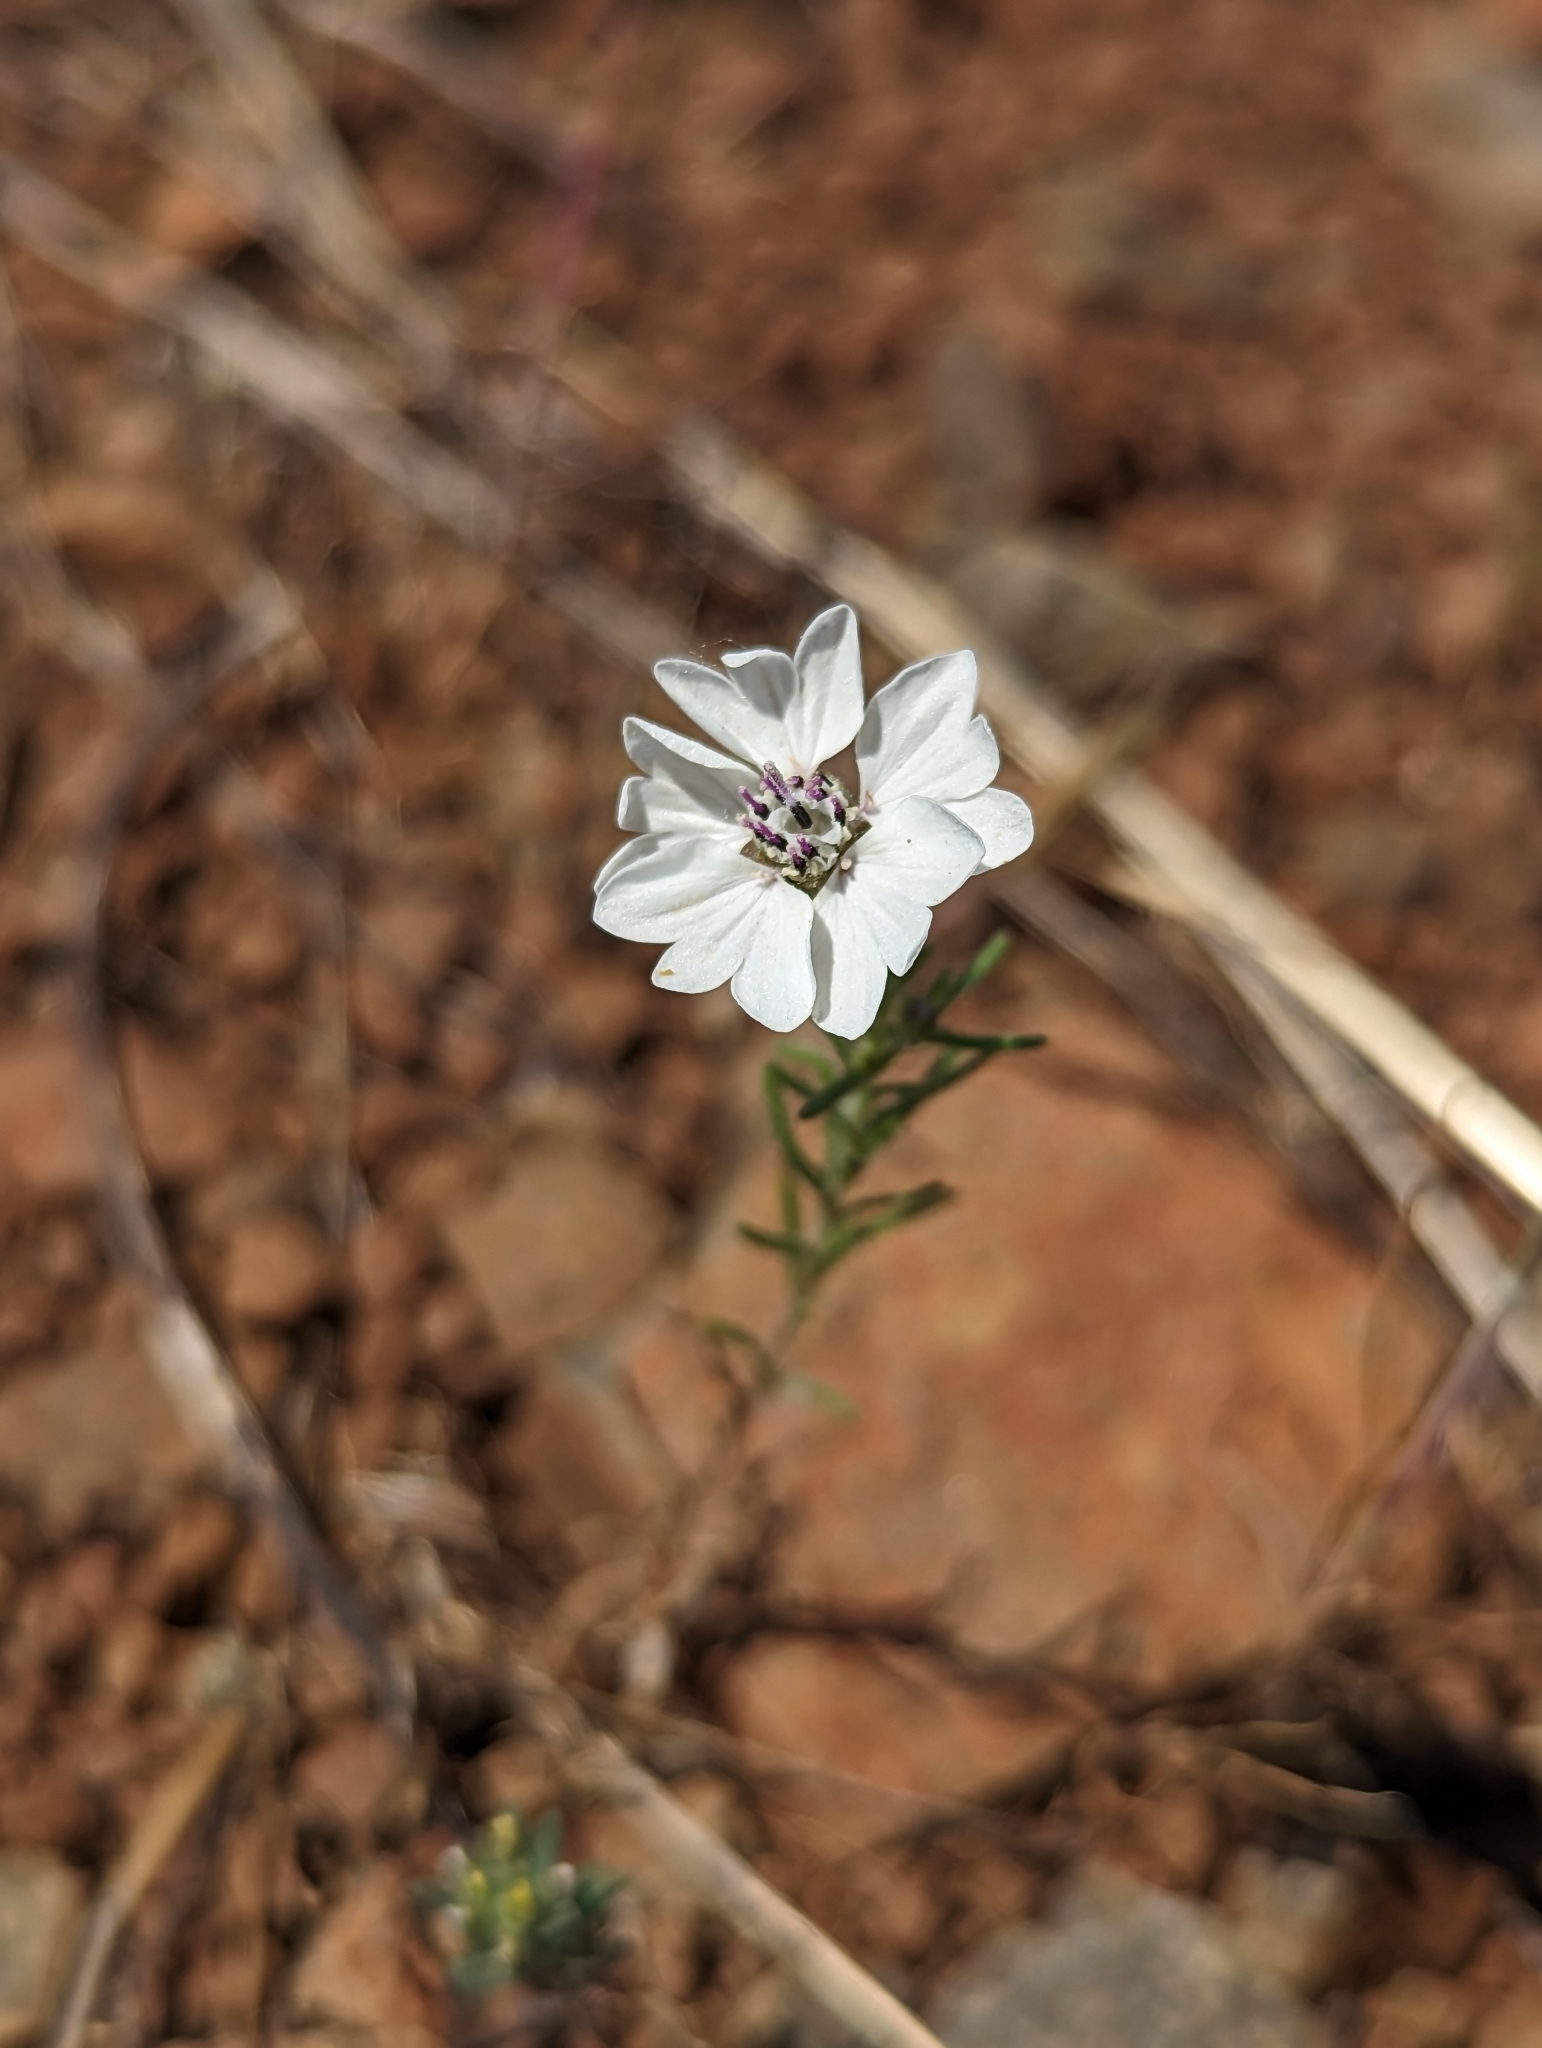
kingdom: Plantae
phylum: Tracheophyta
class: Magnoliopsida
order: Asterales
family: Asteraceae
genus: Blepharipappus
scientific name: Blepharipappus scaber
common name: Rough blepharipappus
